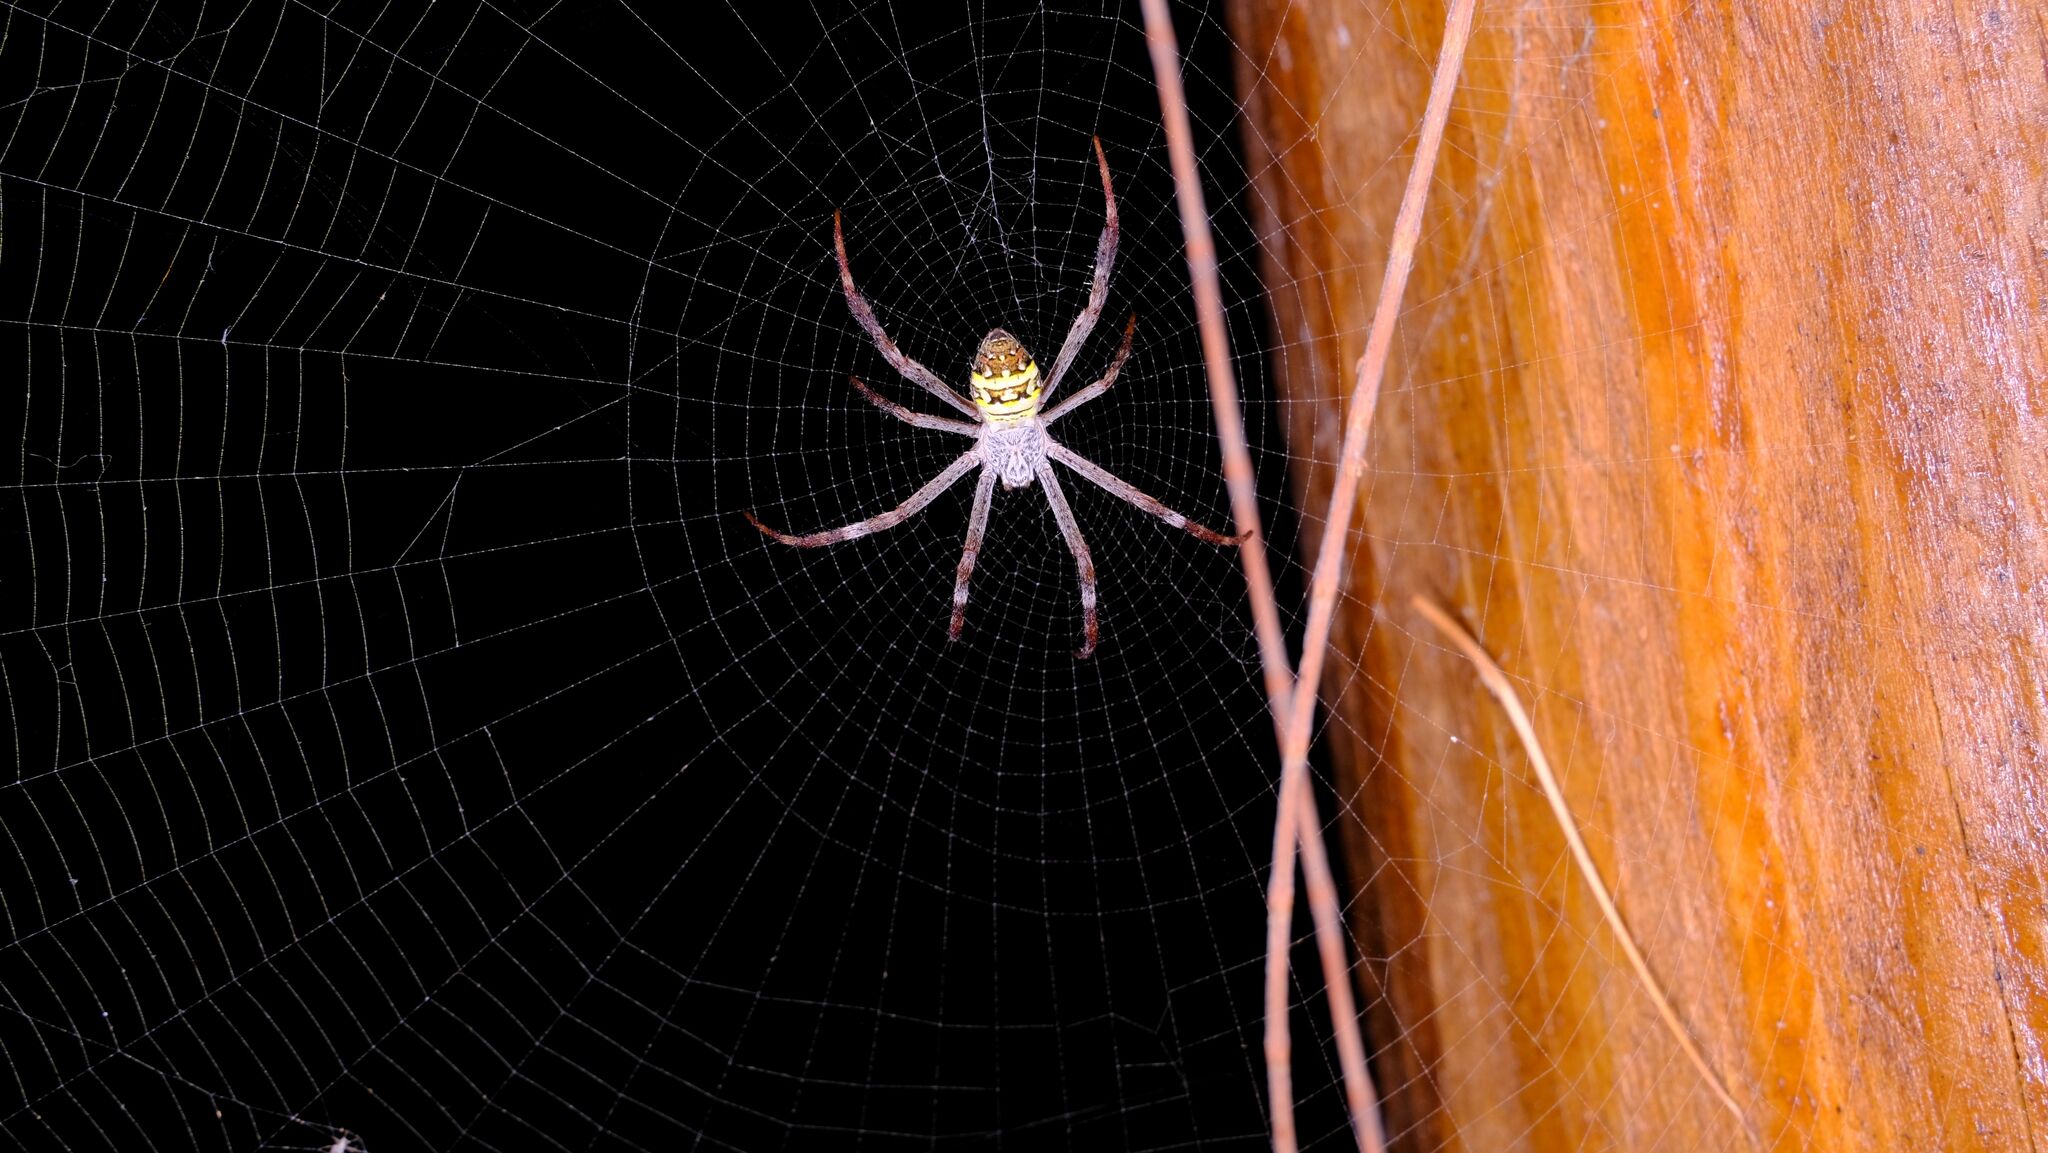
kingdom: Animalia
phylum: Arthropoda
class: Arachnida
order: Araneae
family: Araneidae
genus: Argiope
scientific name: Argiope keyserlingi
